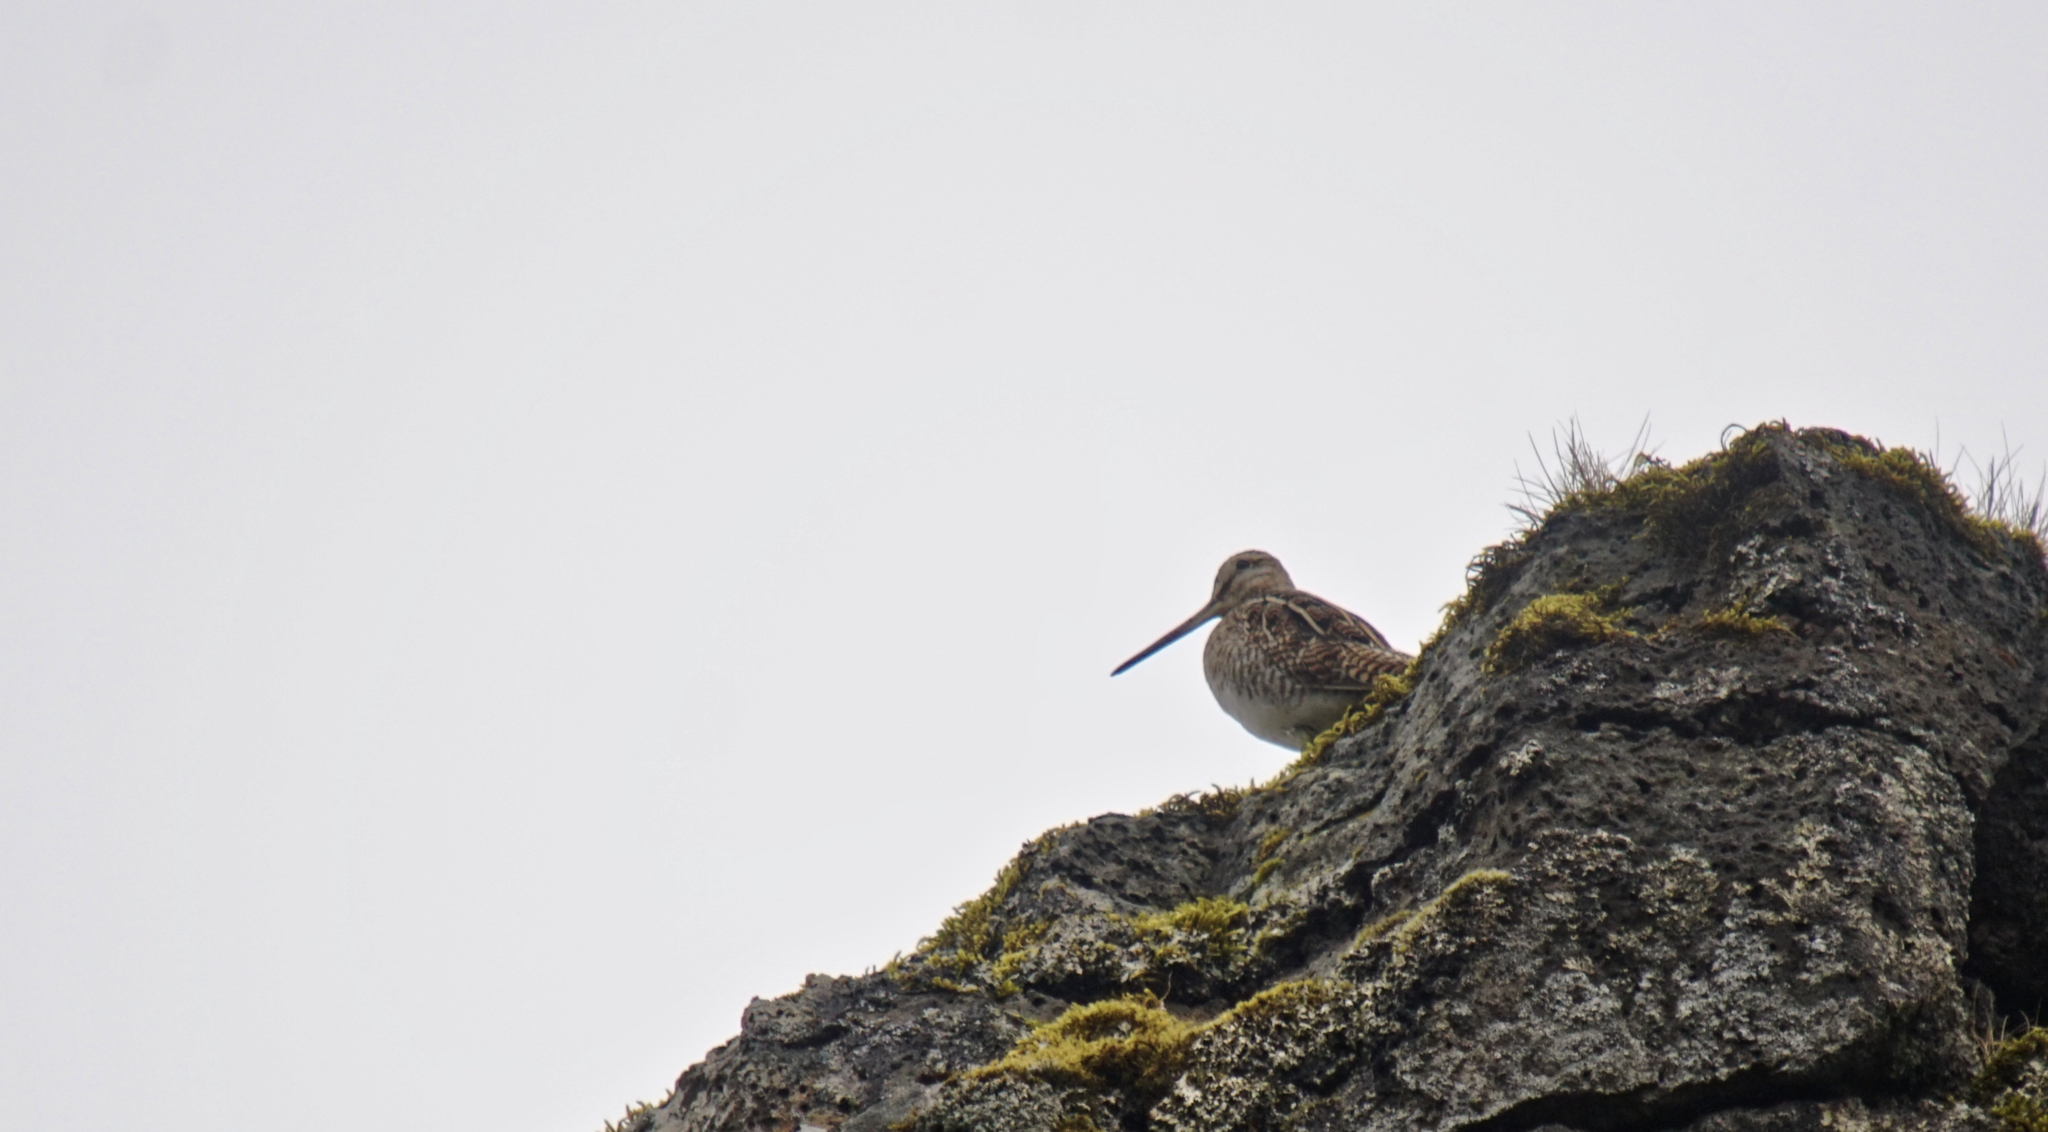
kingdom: Animalia
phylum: Chordata
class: Aves
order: Charadriiformes
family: Scolopacidae
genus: Gallinago
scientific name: Gallinago gallinago
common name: Common snipe
